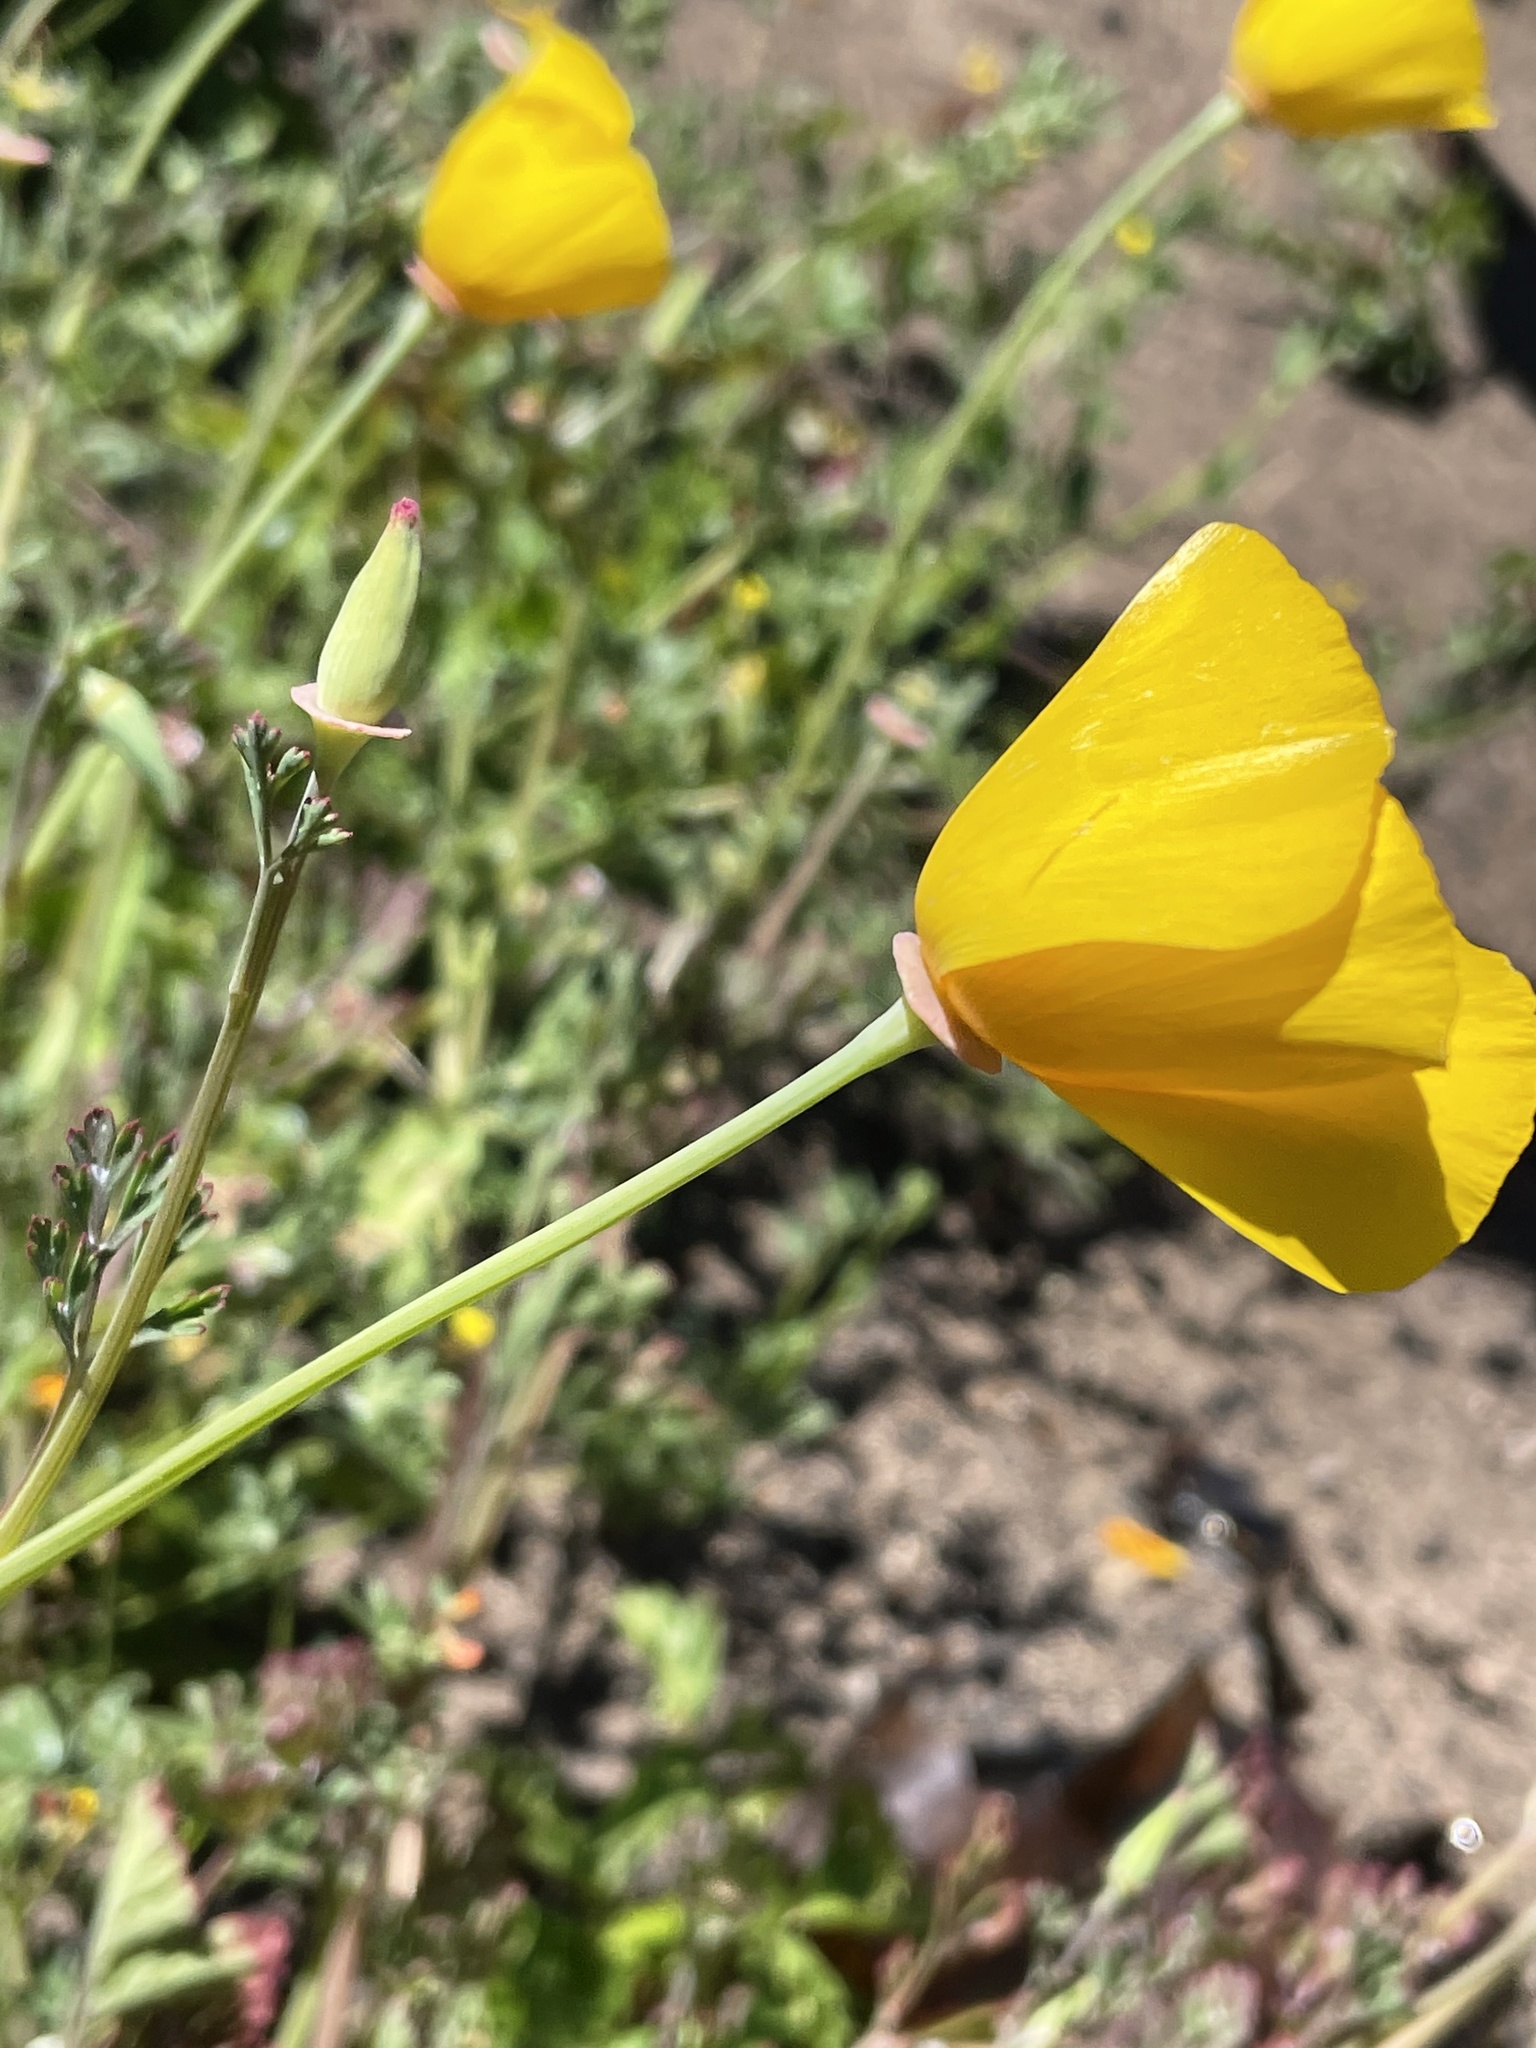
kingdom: Plantae
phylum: Tracheophyta
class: Magnoliopsida
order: Ranunculales
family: Papaveraceae
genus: Eschscholzia
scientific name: Eschscholzia californica
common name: California poppy
